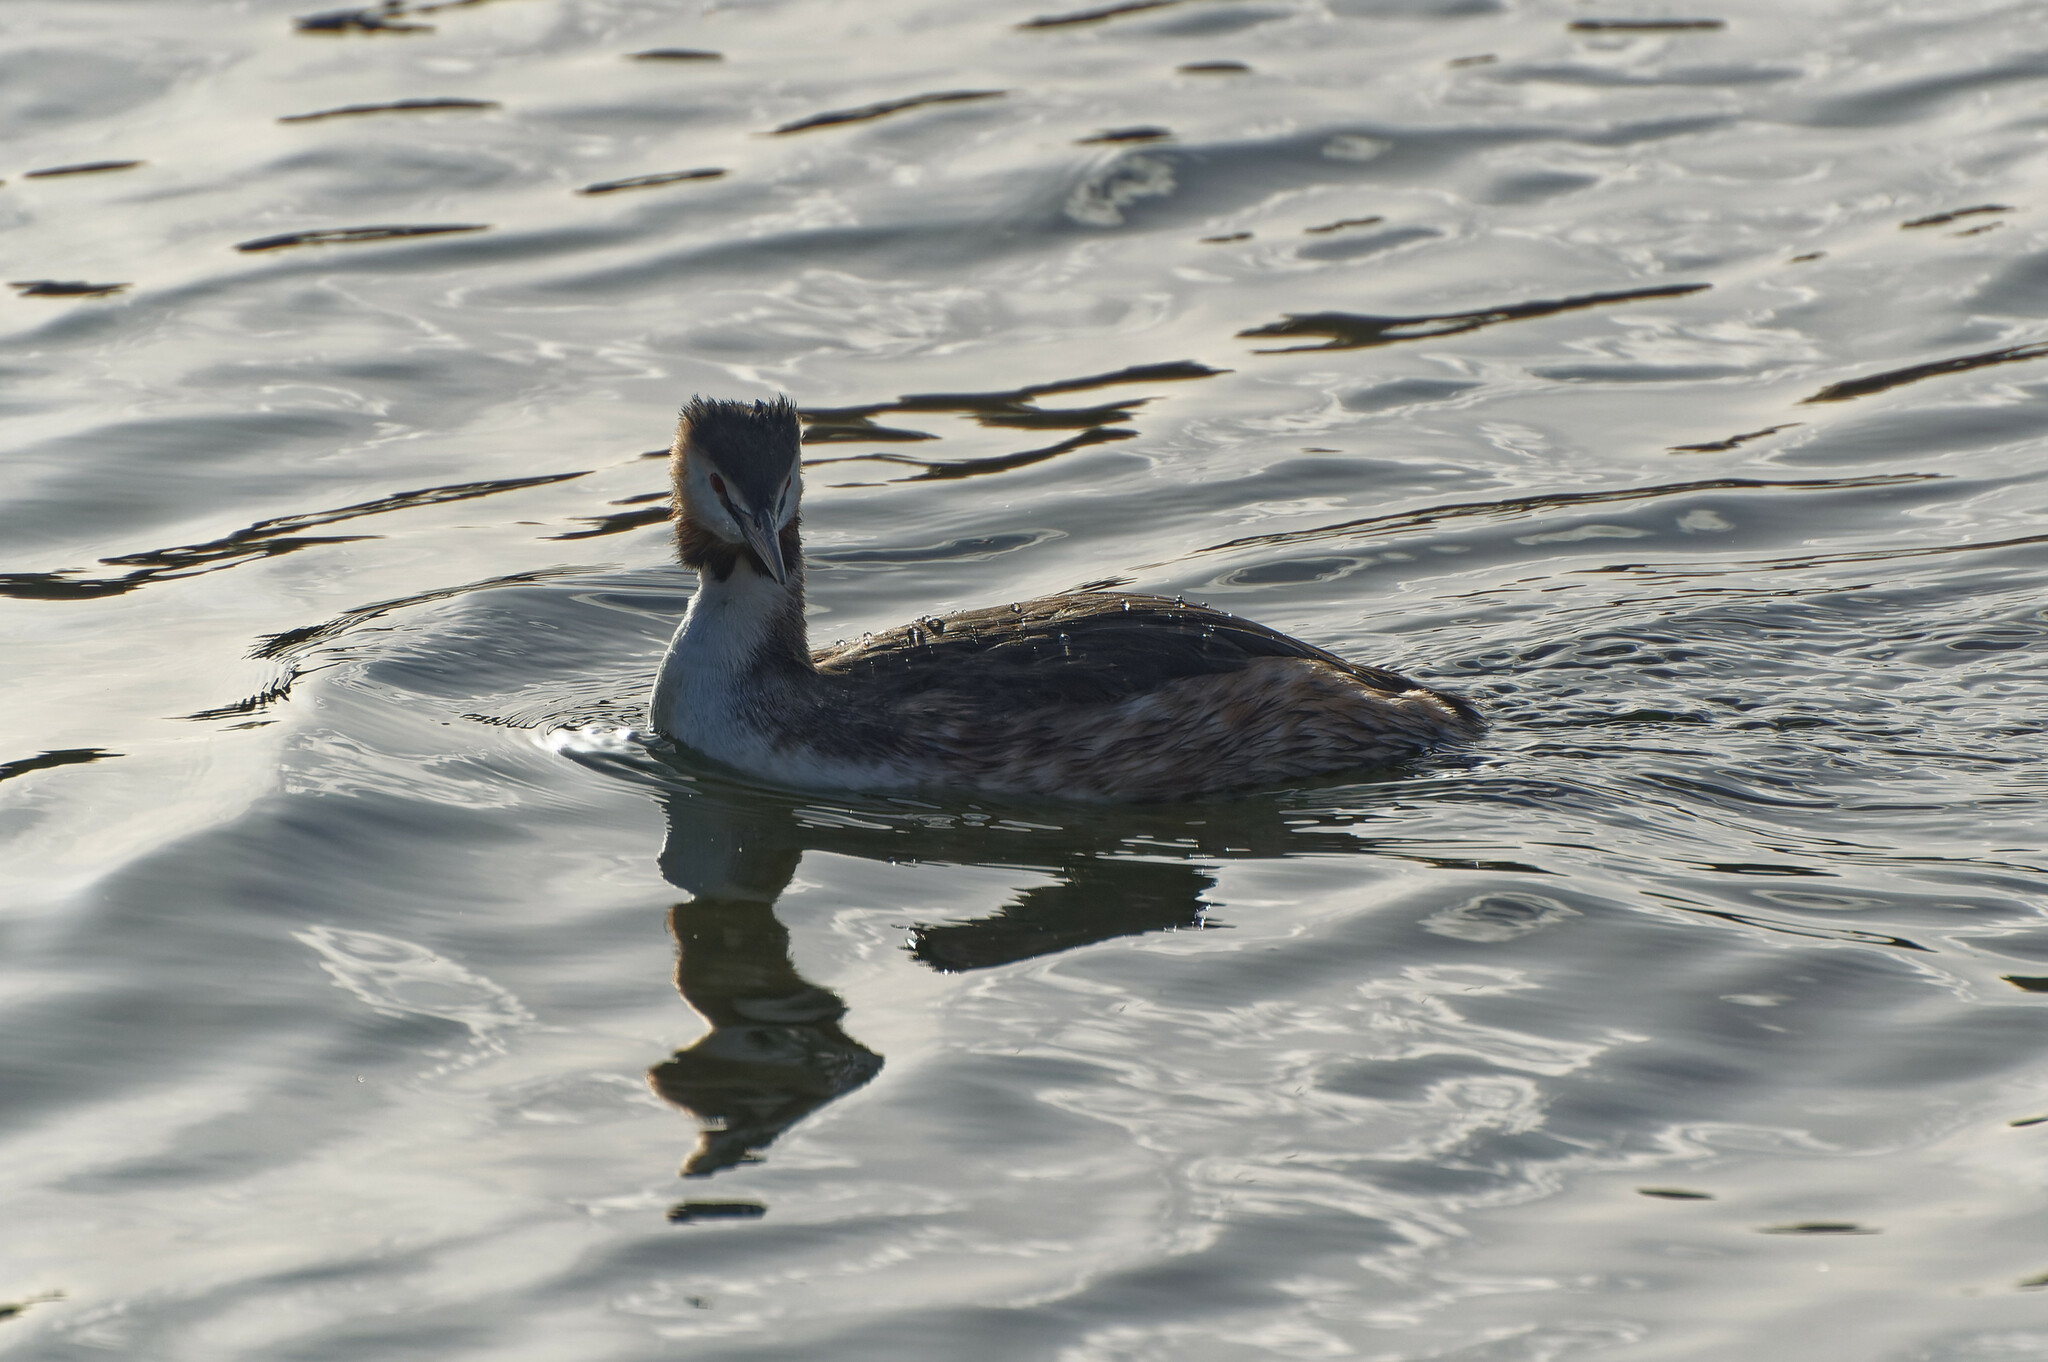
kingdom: Animalia
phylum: Chordata
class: Aves
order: Podicipediformes
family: Podicipedidae
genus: Podiceps
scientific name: Podiceps cristatus
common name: Great crested grebe
